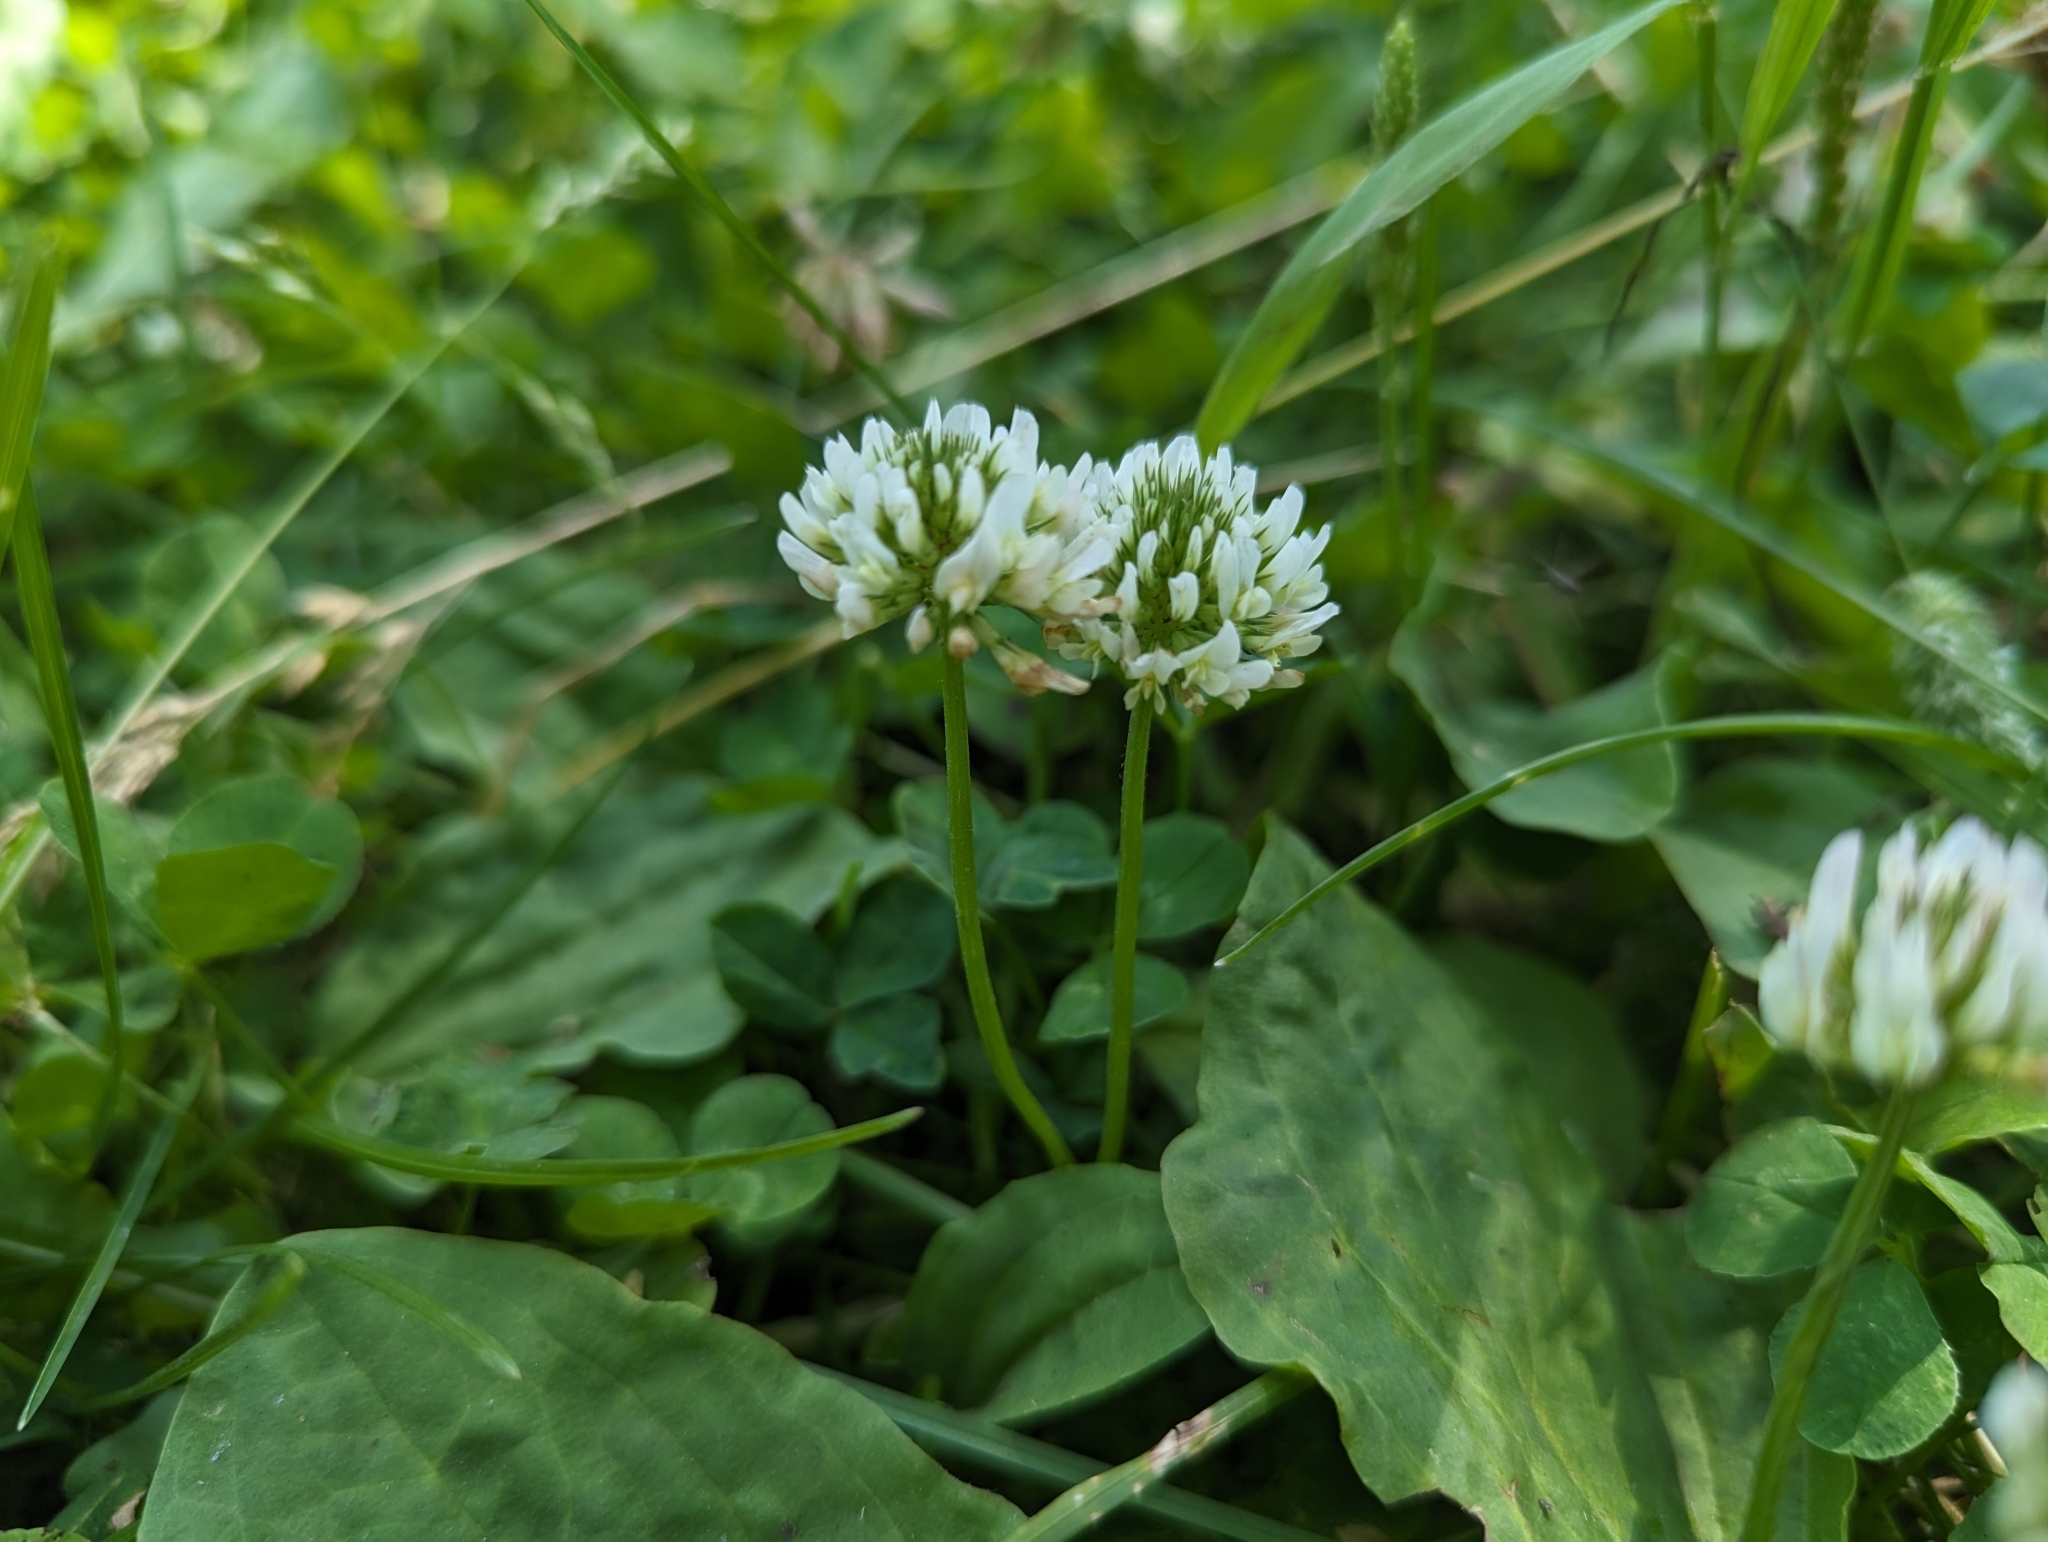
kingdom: Plantae
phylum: Tracheophyta
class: Magnoliopsida
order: Fabales
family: Fabaceae
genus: Trifolium
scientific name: Trifolium repens
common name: White clover
